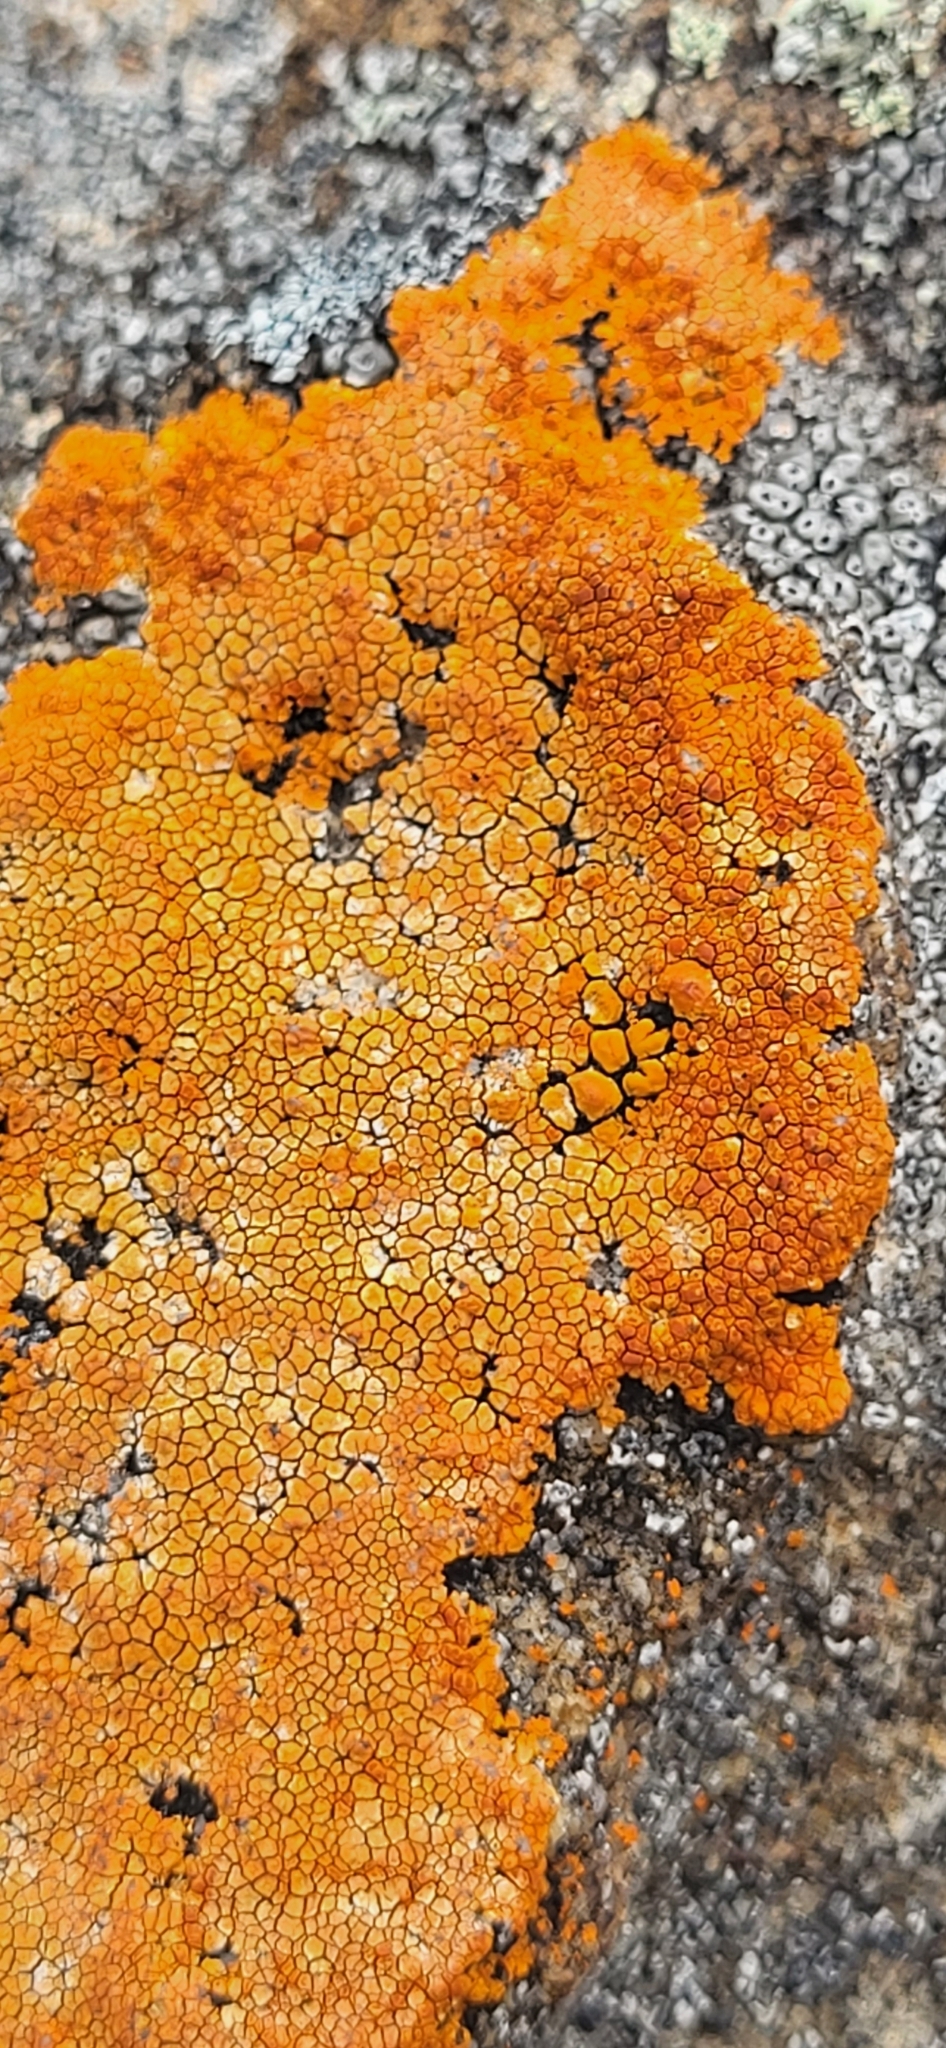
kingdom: Fungi
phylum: Ascomycota
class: Lecanoromycetes
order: Teloschistales
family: Teloschistaceae
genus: Neobrownliella
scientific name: Neobrownliella cinnabarina
